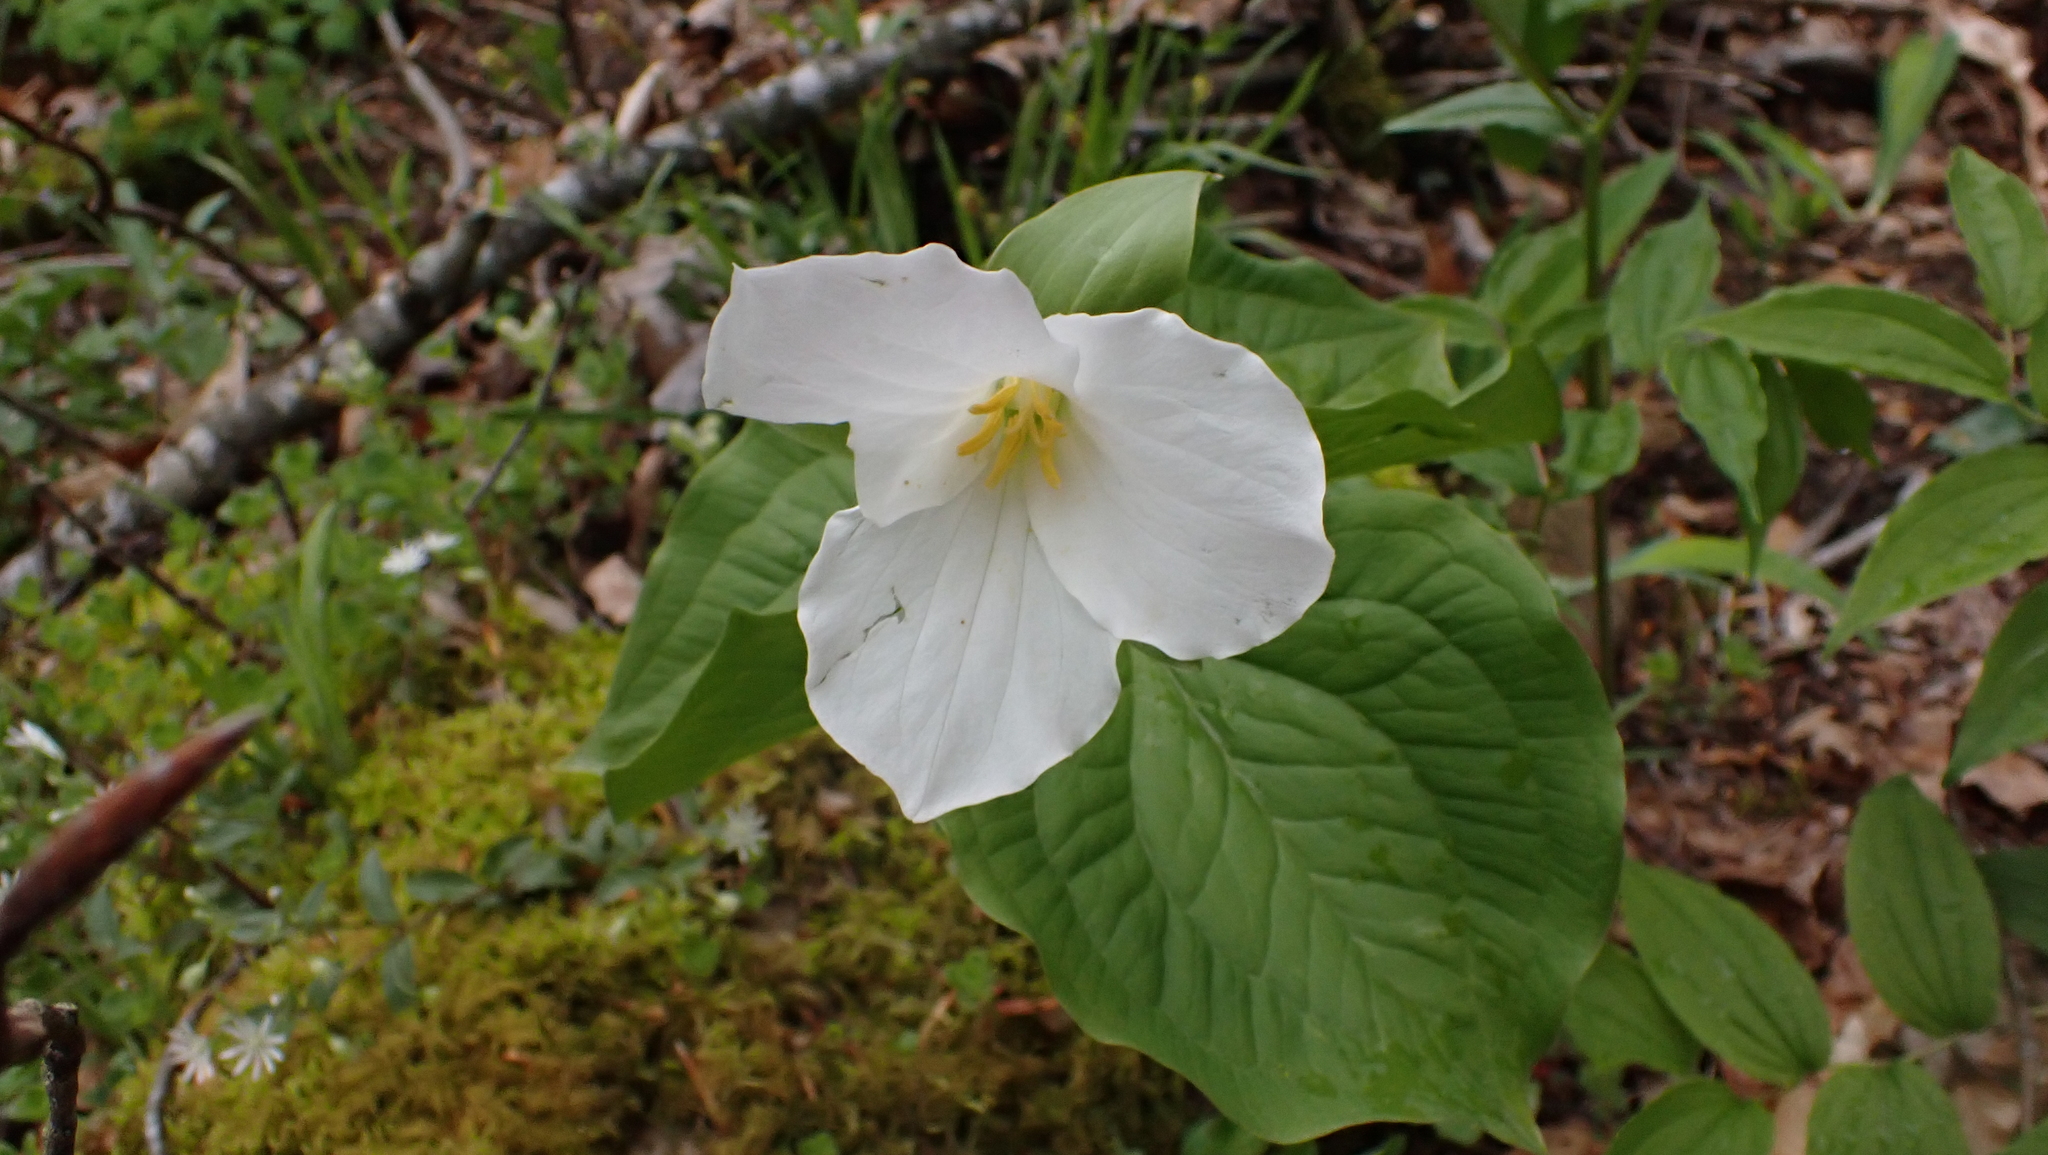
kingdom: Plantae
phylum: Tracheophyta
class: Liliopsida
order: Liliales
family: Melanthiaceae
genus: Trillium
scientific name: Trillium grandiflorum
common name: Great white trillium
